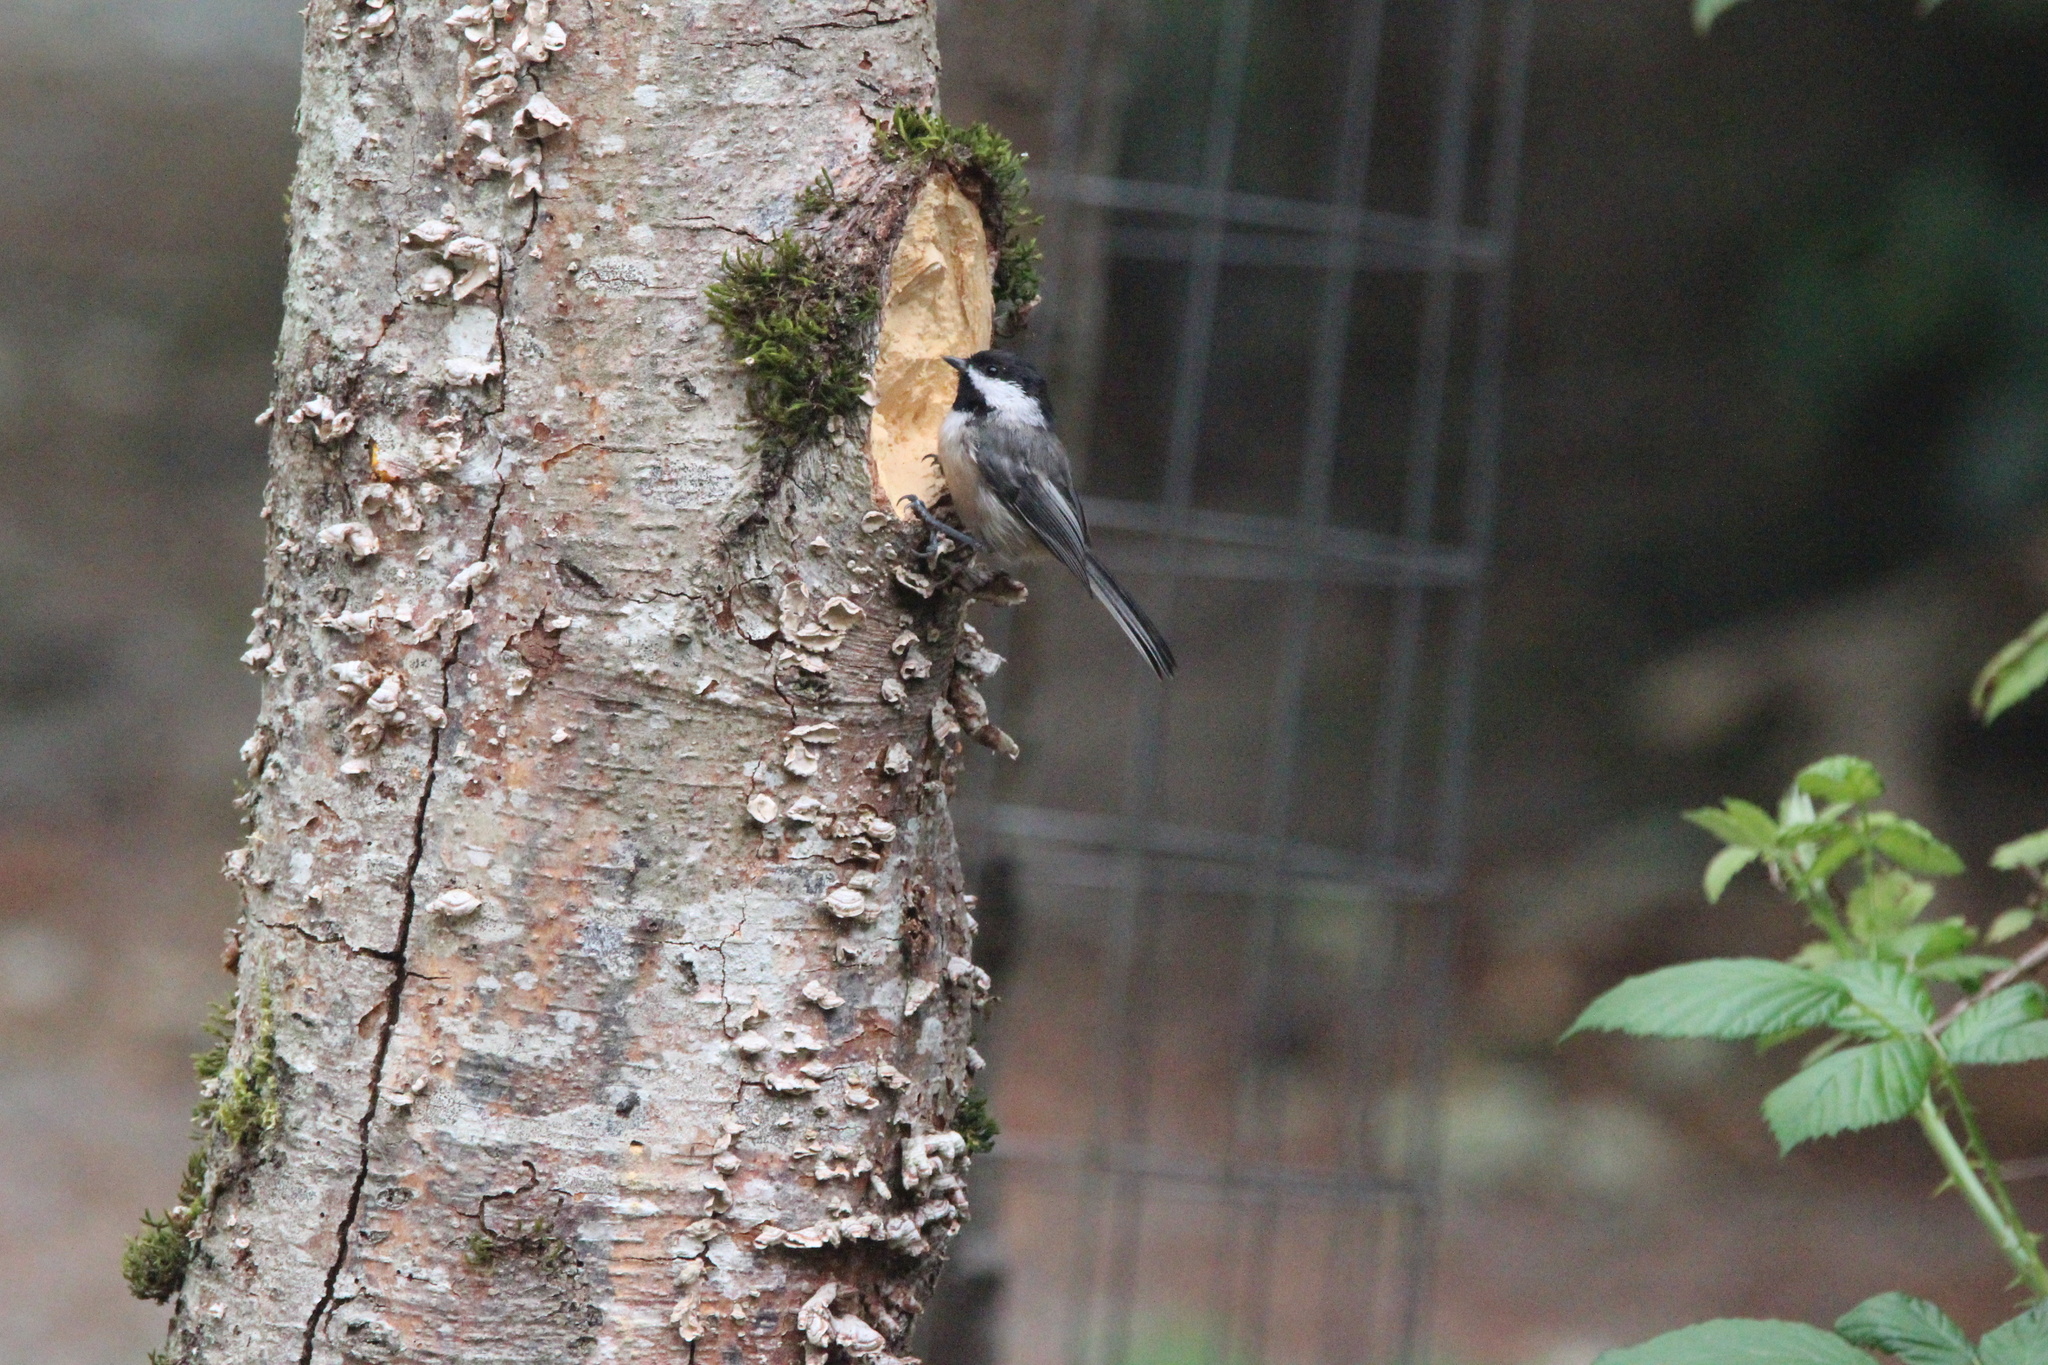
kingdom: Animalia
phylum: Chordata
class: Aves
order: Passeriformes
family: Paridae
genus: Poecile
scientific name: Poecile atricapillus
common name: Black-capped chickadee
